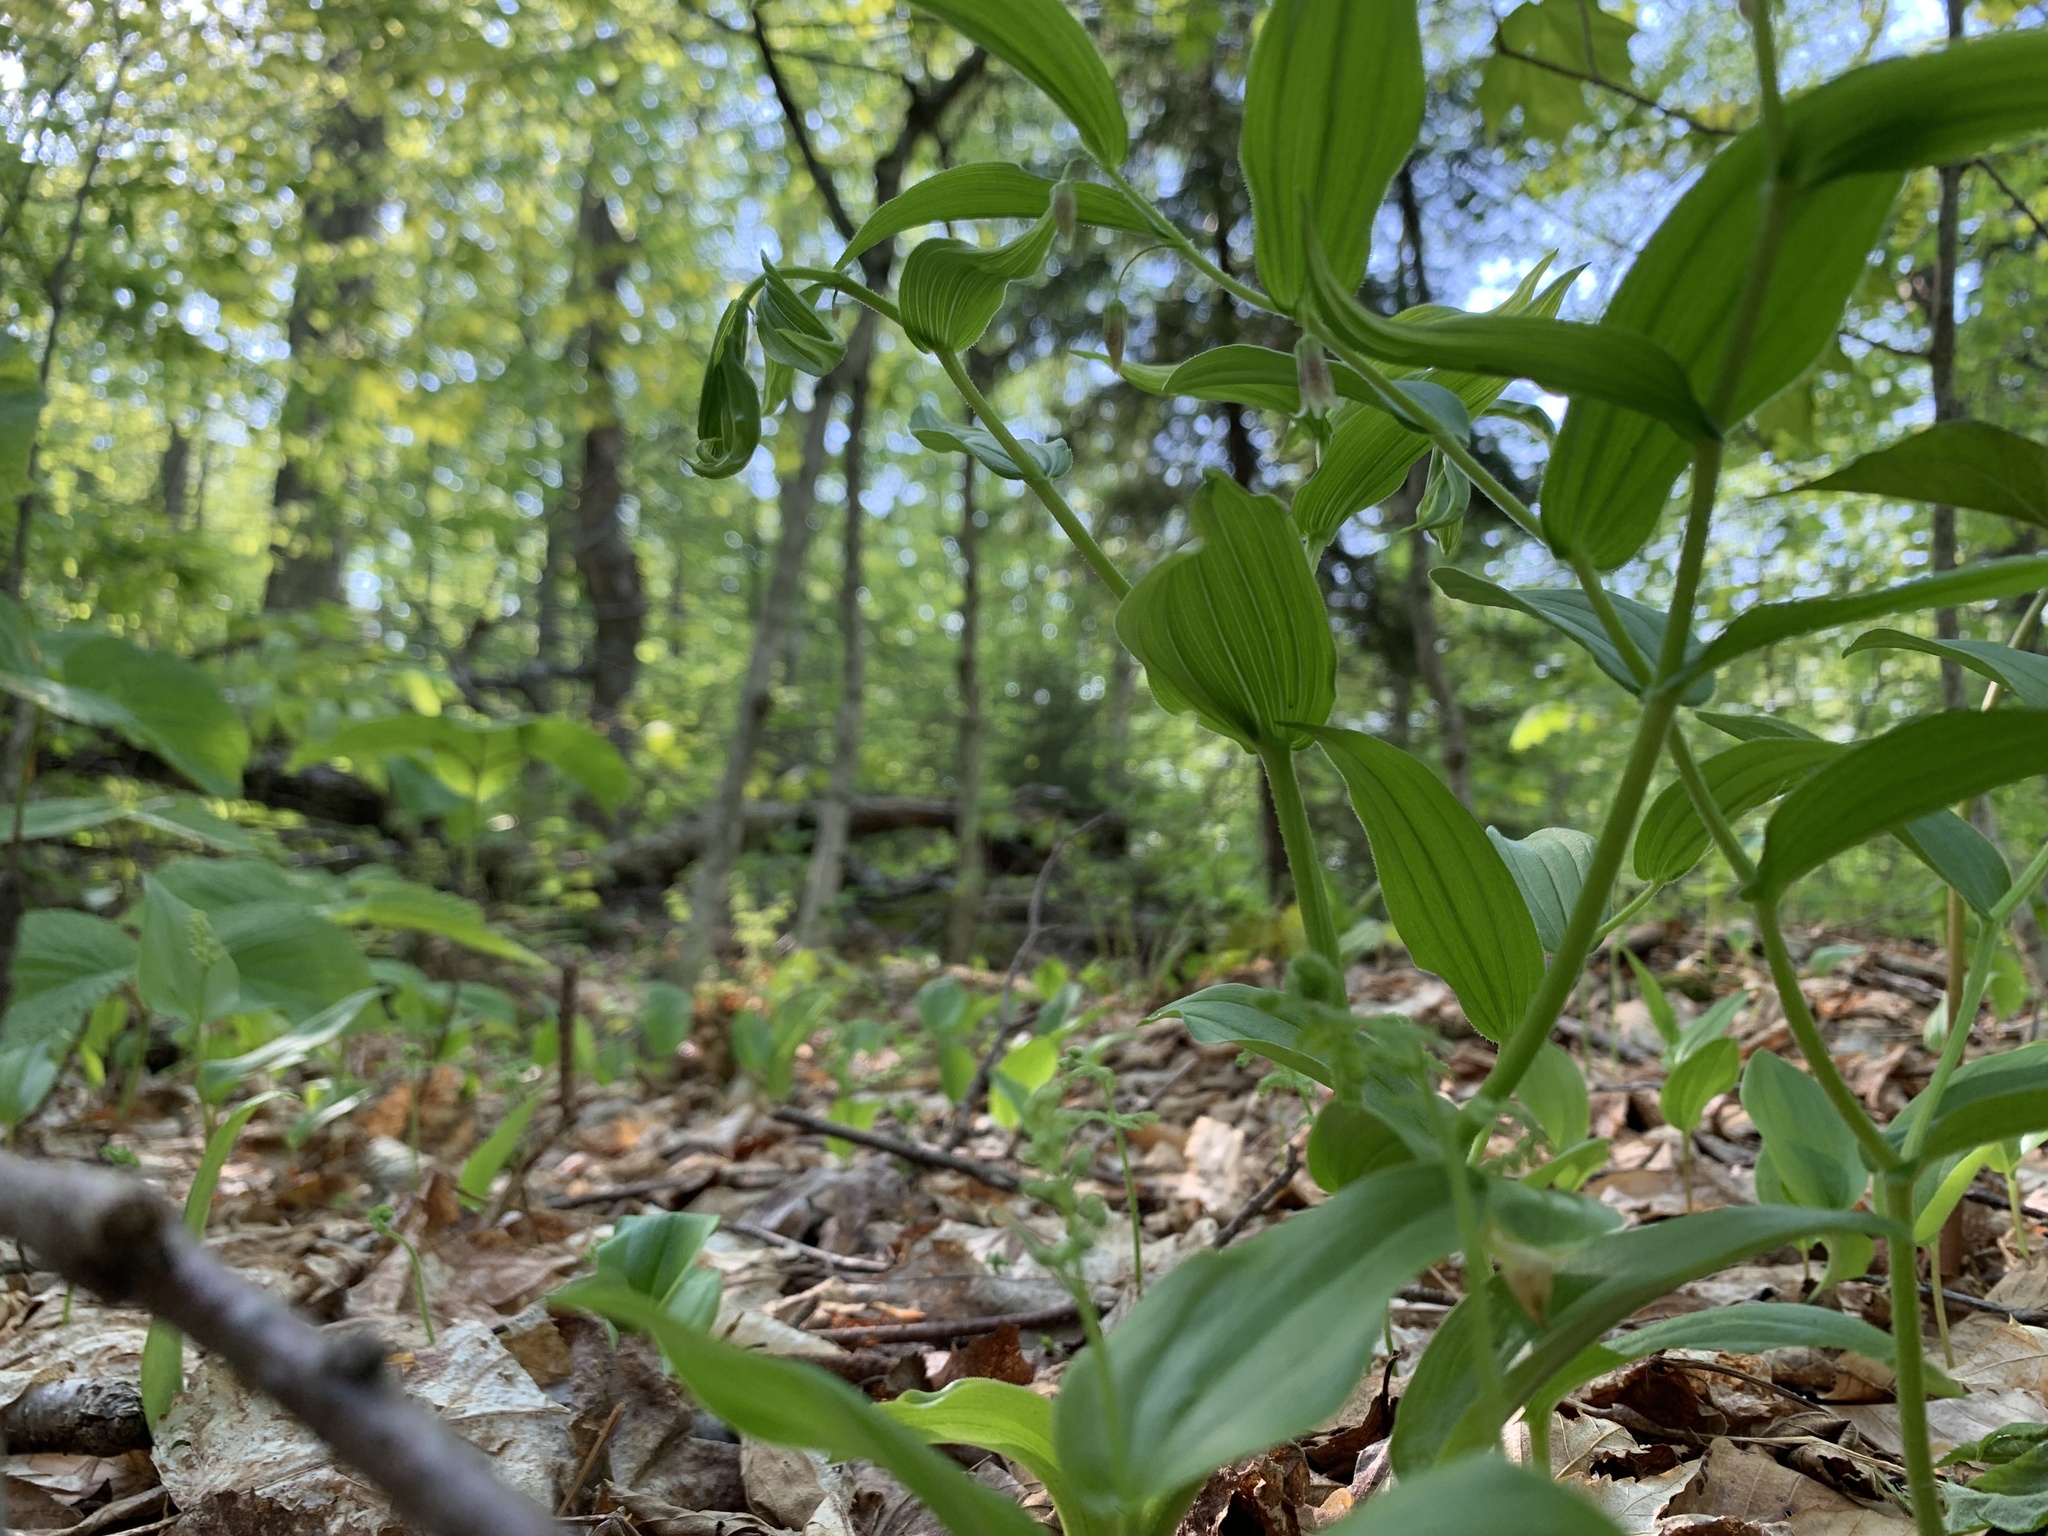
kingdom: Plantae
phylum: Tracheophyta
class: Liliopsida
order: Liliales
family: Liliaceae
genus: Streptopus
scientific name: Streptopus lanceolatus
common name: Rose mandarin
